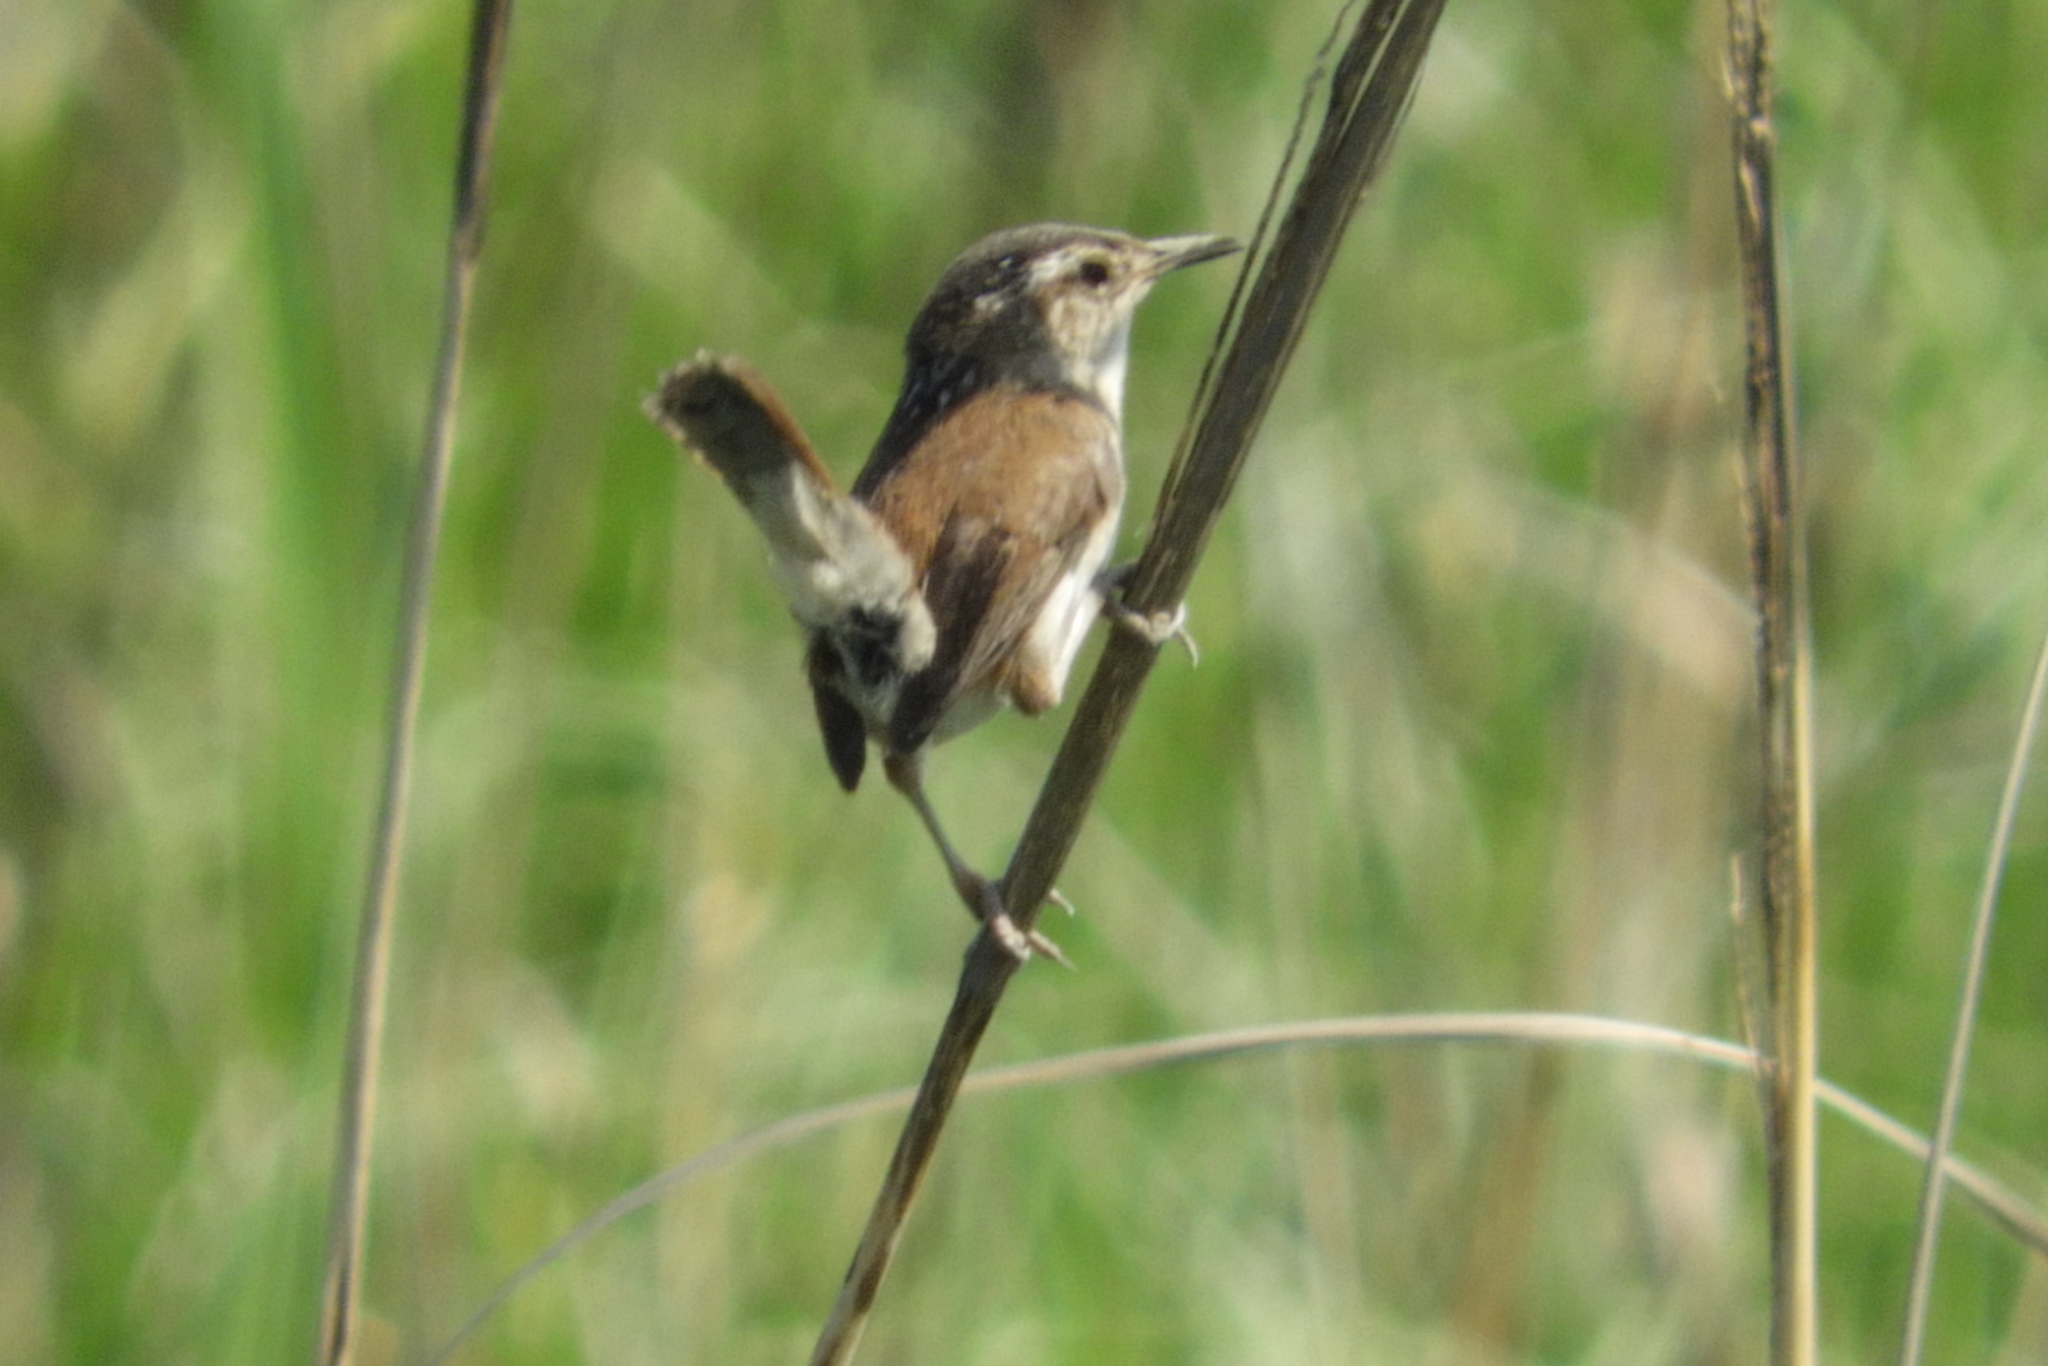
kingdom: Animalia
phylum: Chordata
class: Aves
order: Passeriformes
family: Troglodytidae
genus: Cistothorus
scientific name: Cistothorus palustris
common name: Marsh wren
